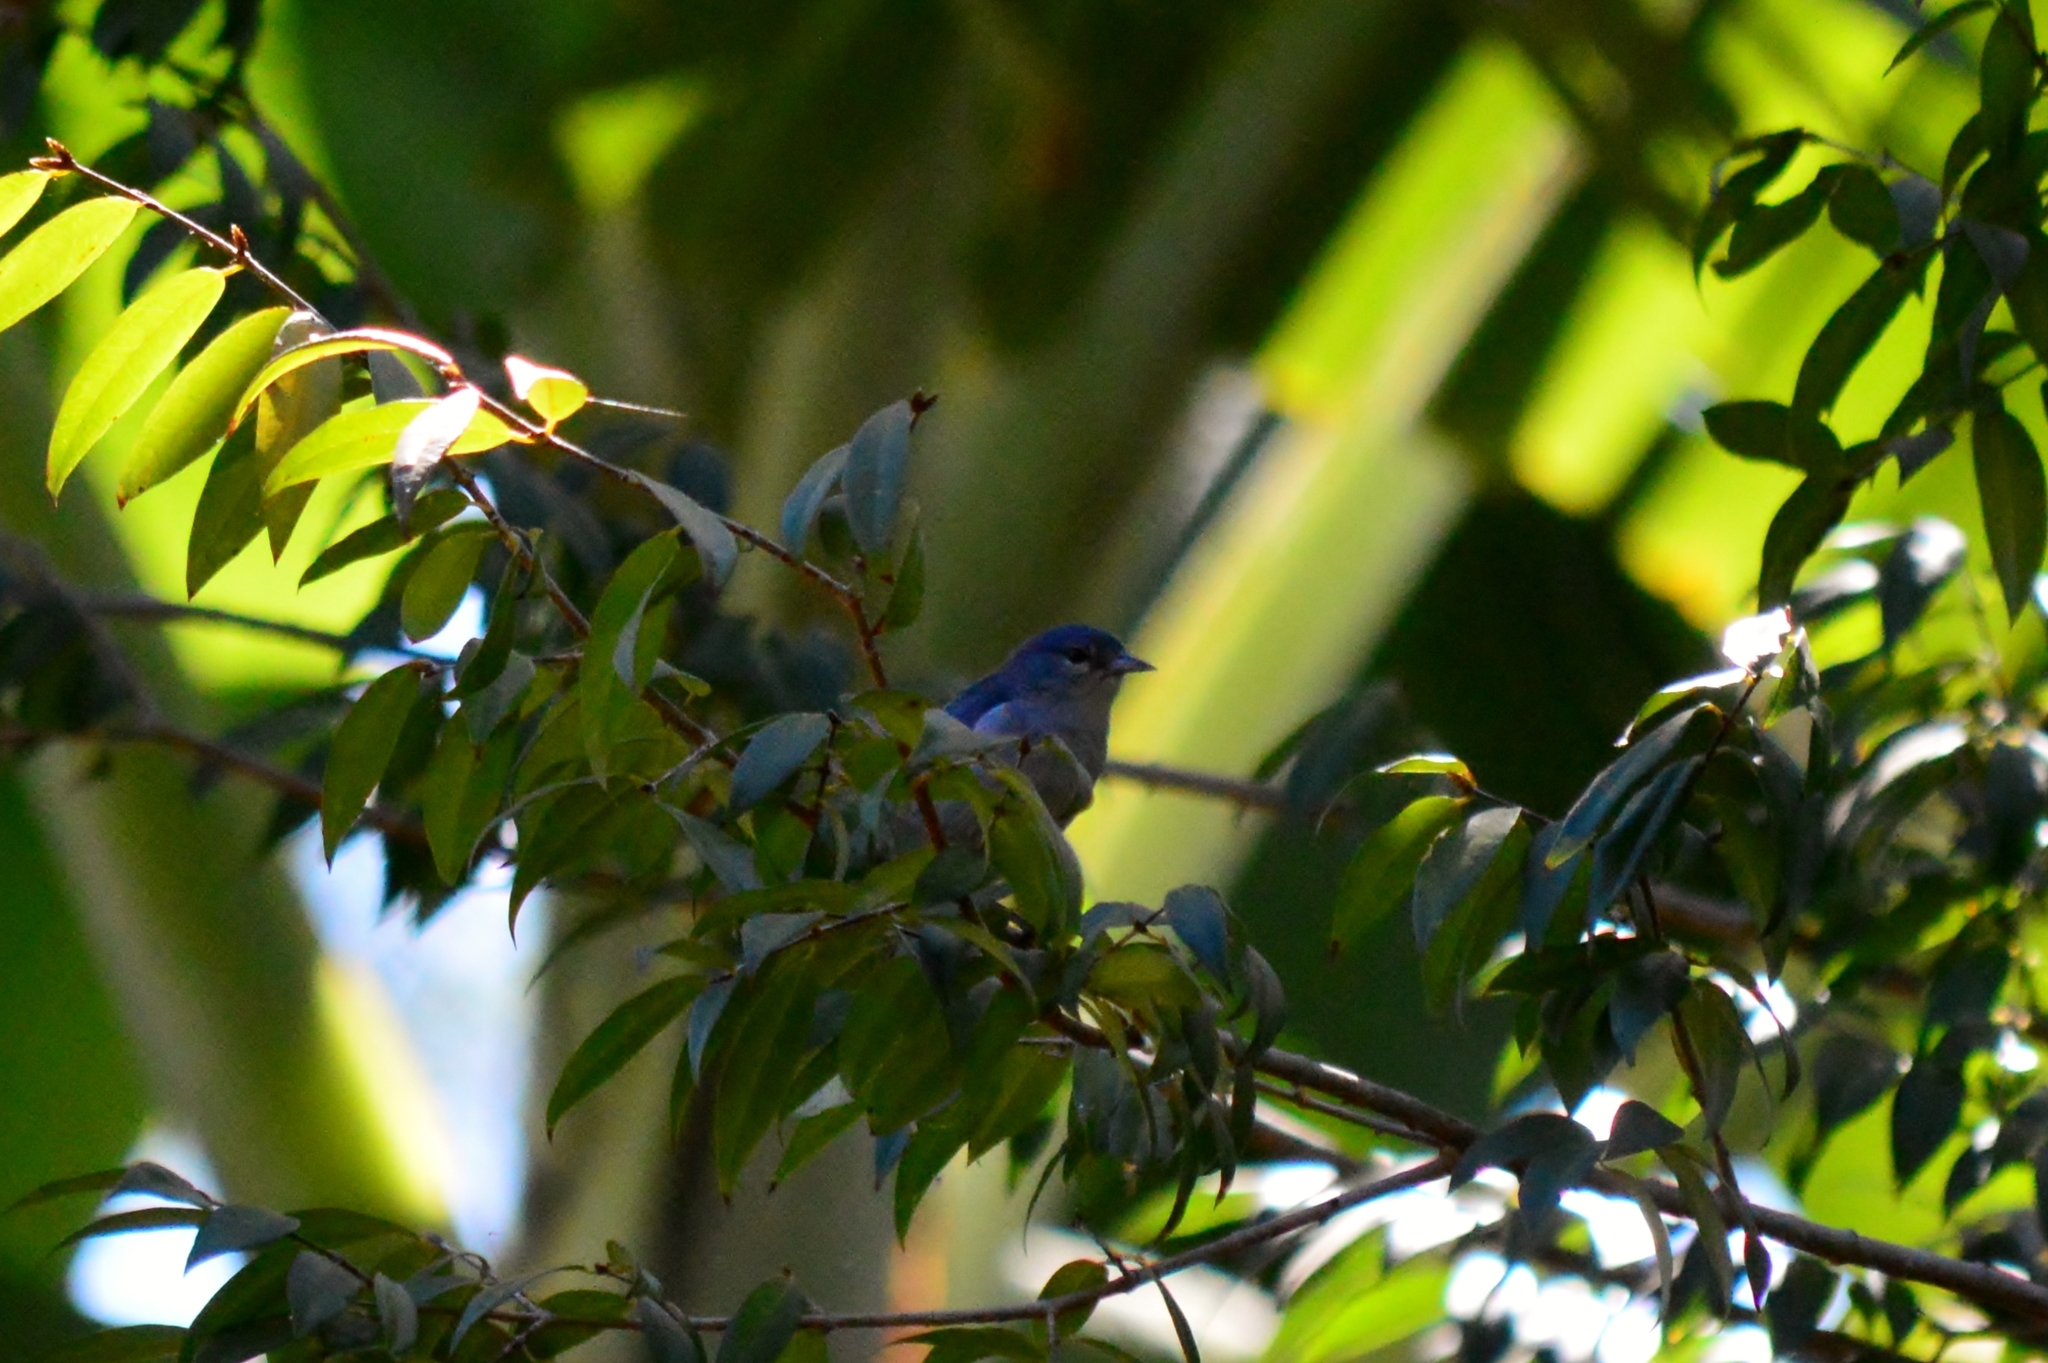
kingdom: Animalia
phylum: Chordata
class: Aves
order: Passeriformes
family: Thraupidae
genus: Conirostrum
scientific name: Conirostrum speciosum
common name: Chestnut-vented conebill
